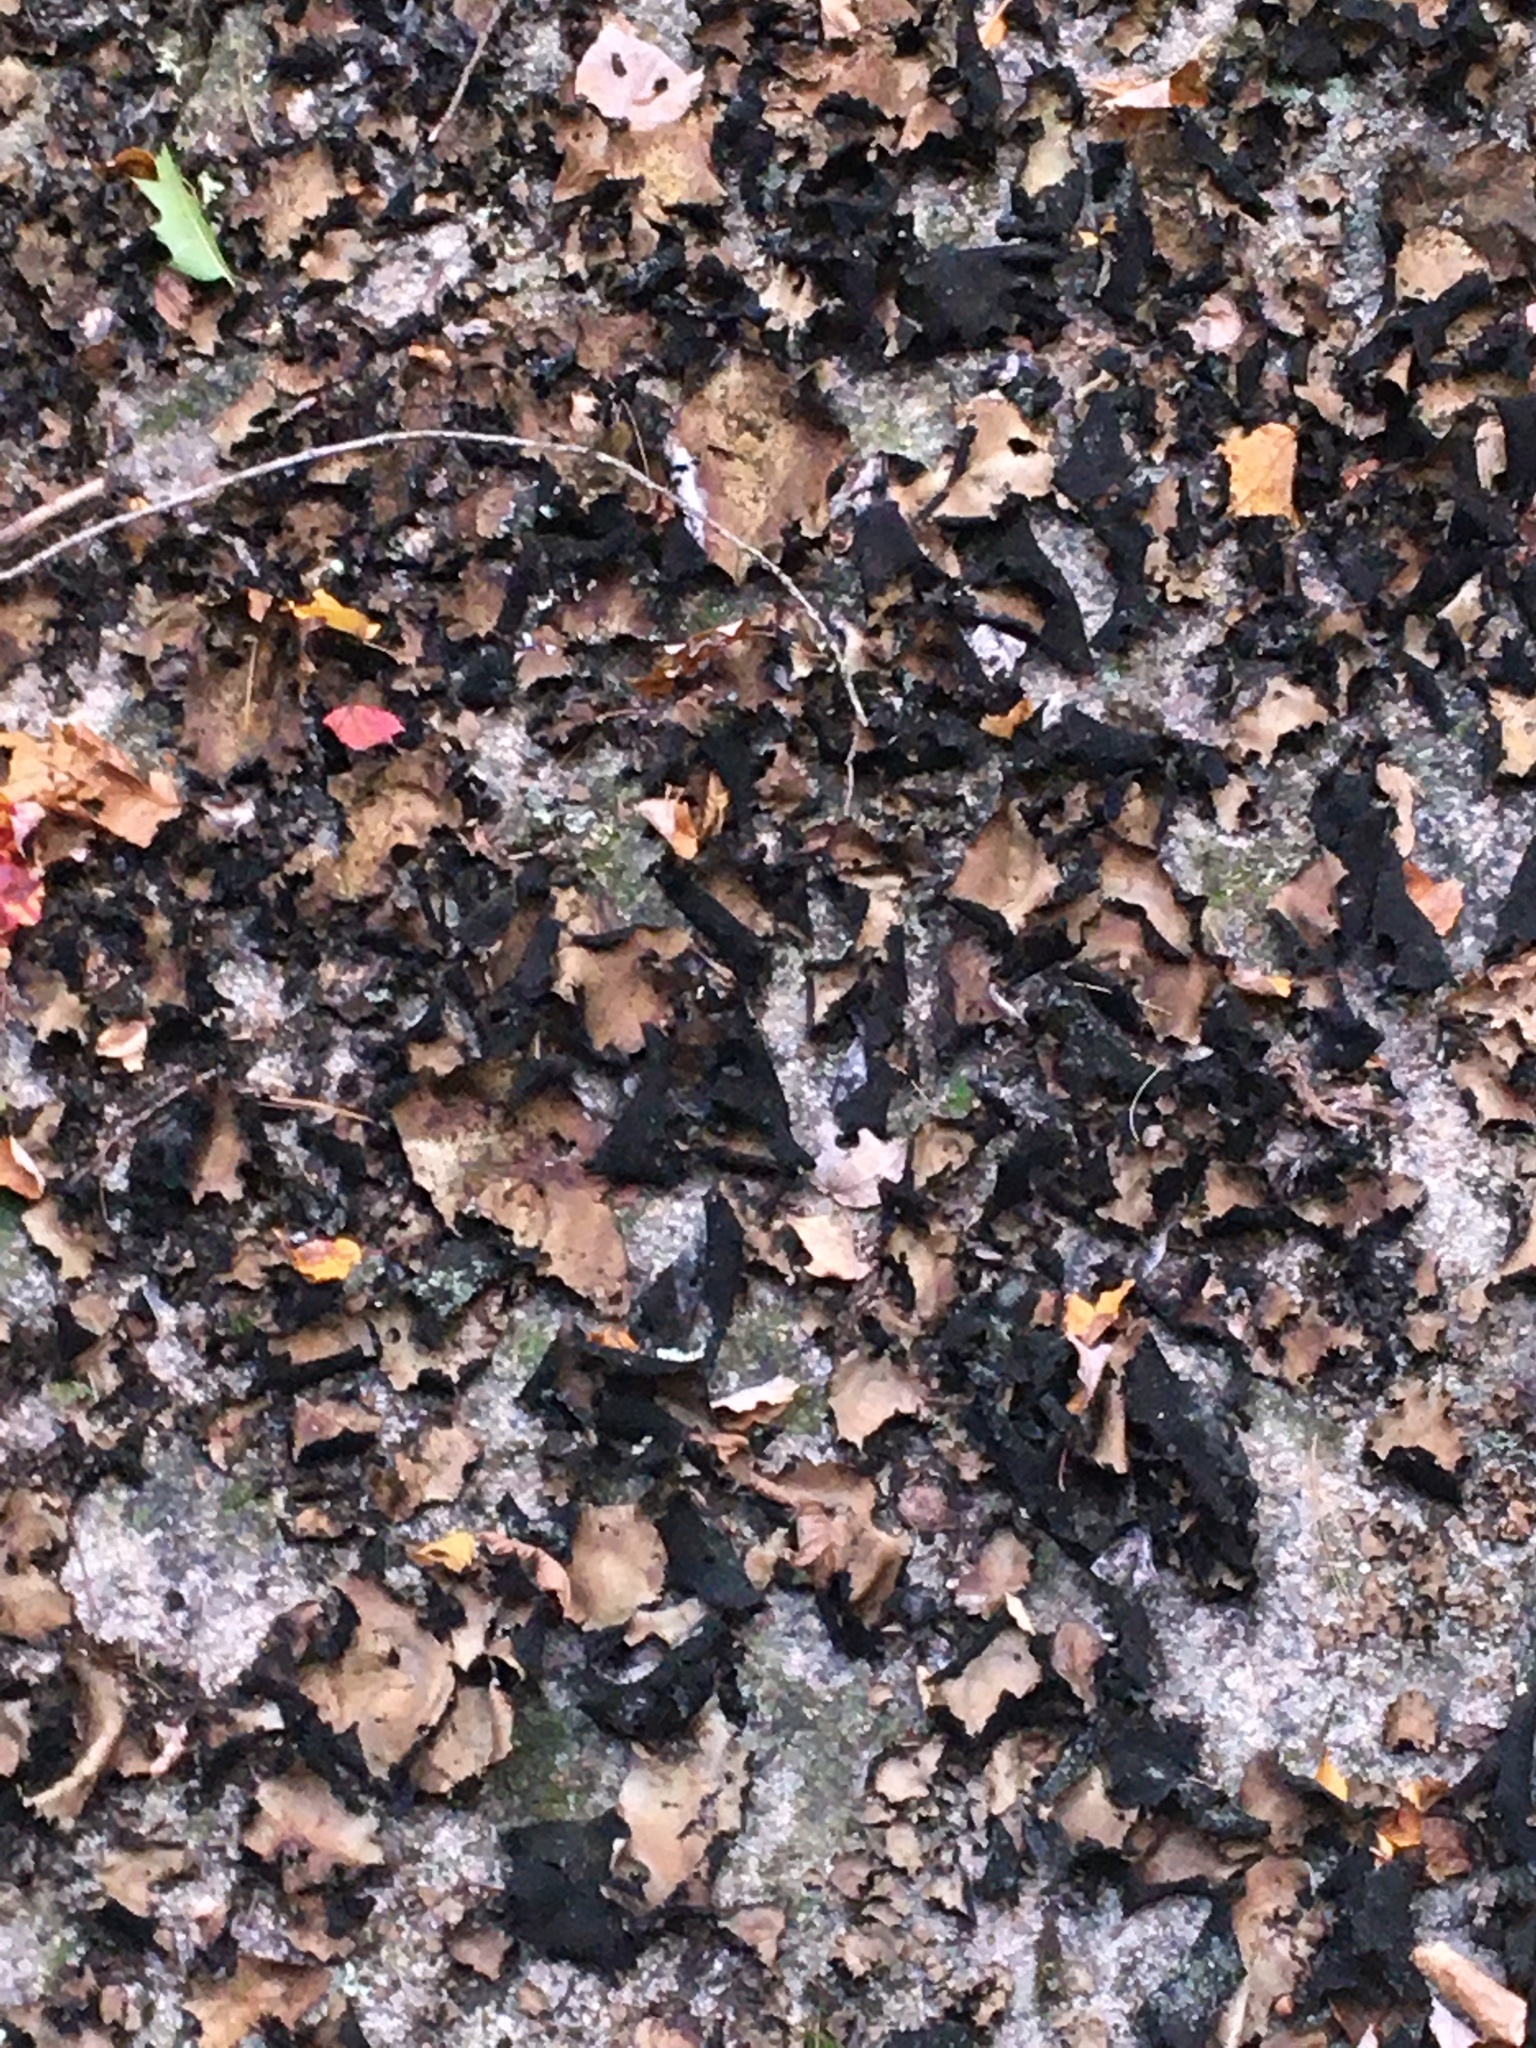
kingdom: Fungi
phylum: Ascomycota
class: Lecanoromycetes
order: Umbilicariales
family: Umbilicariaceae
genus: Umbilicaria
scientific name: Umbilicaria mammulata
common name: Smooth rock tripe
